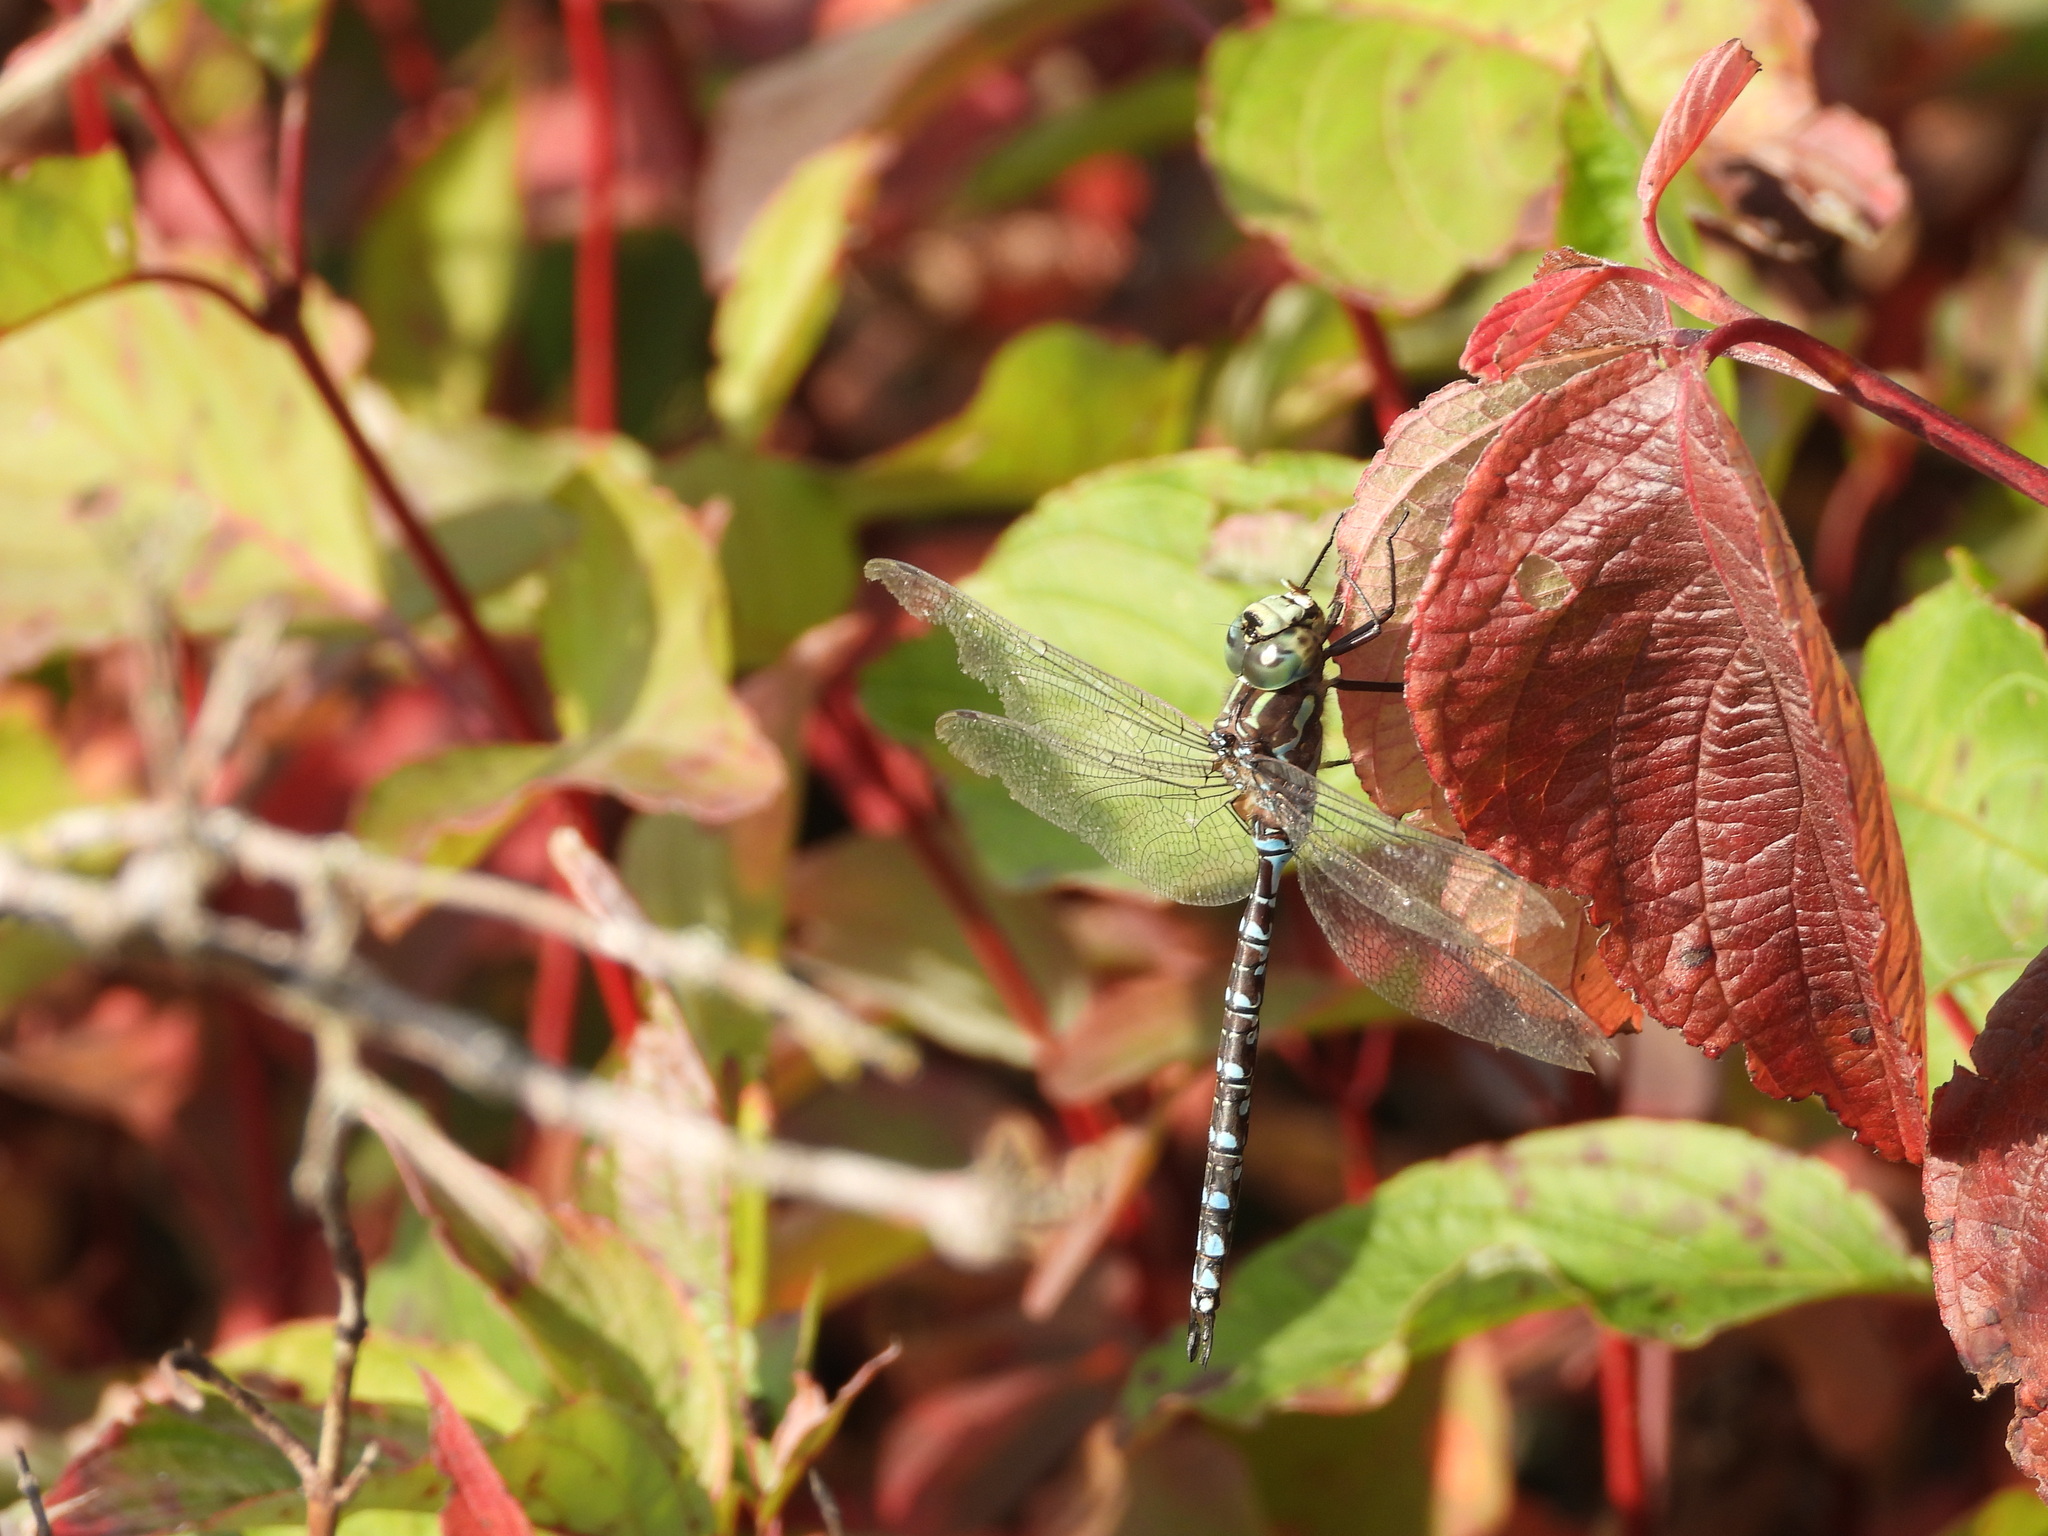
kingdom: Animalia
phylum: Arthropoda
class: Insecta
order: Odonata
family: Aeshnidae
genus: Aeshna
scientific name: Aeshna canadensis
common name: Canada darner
